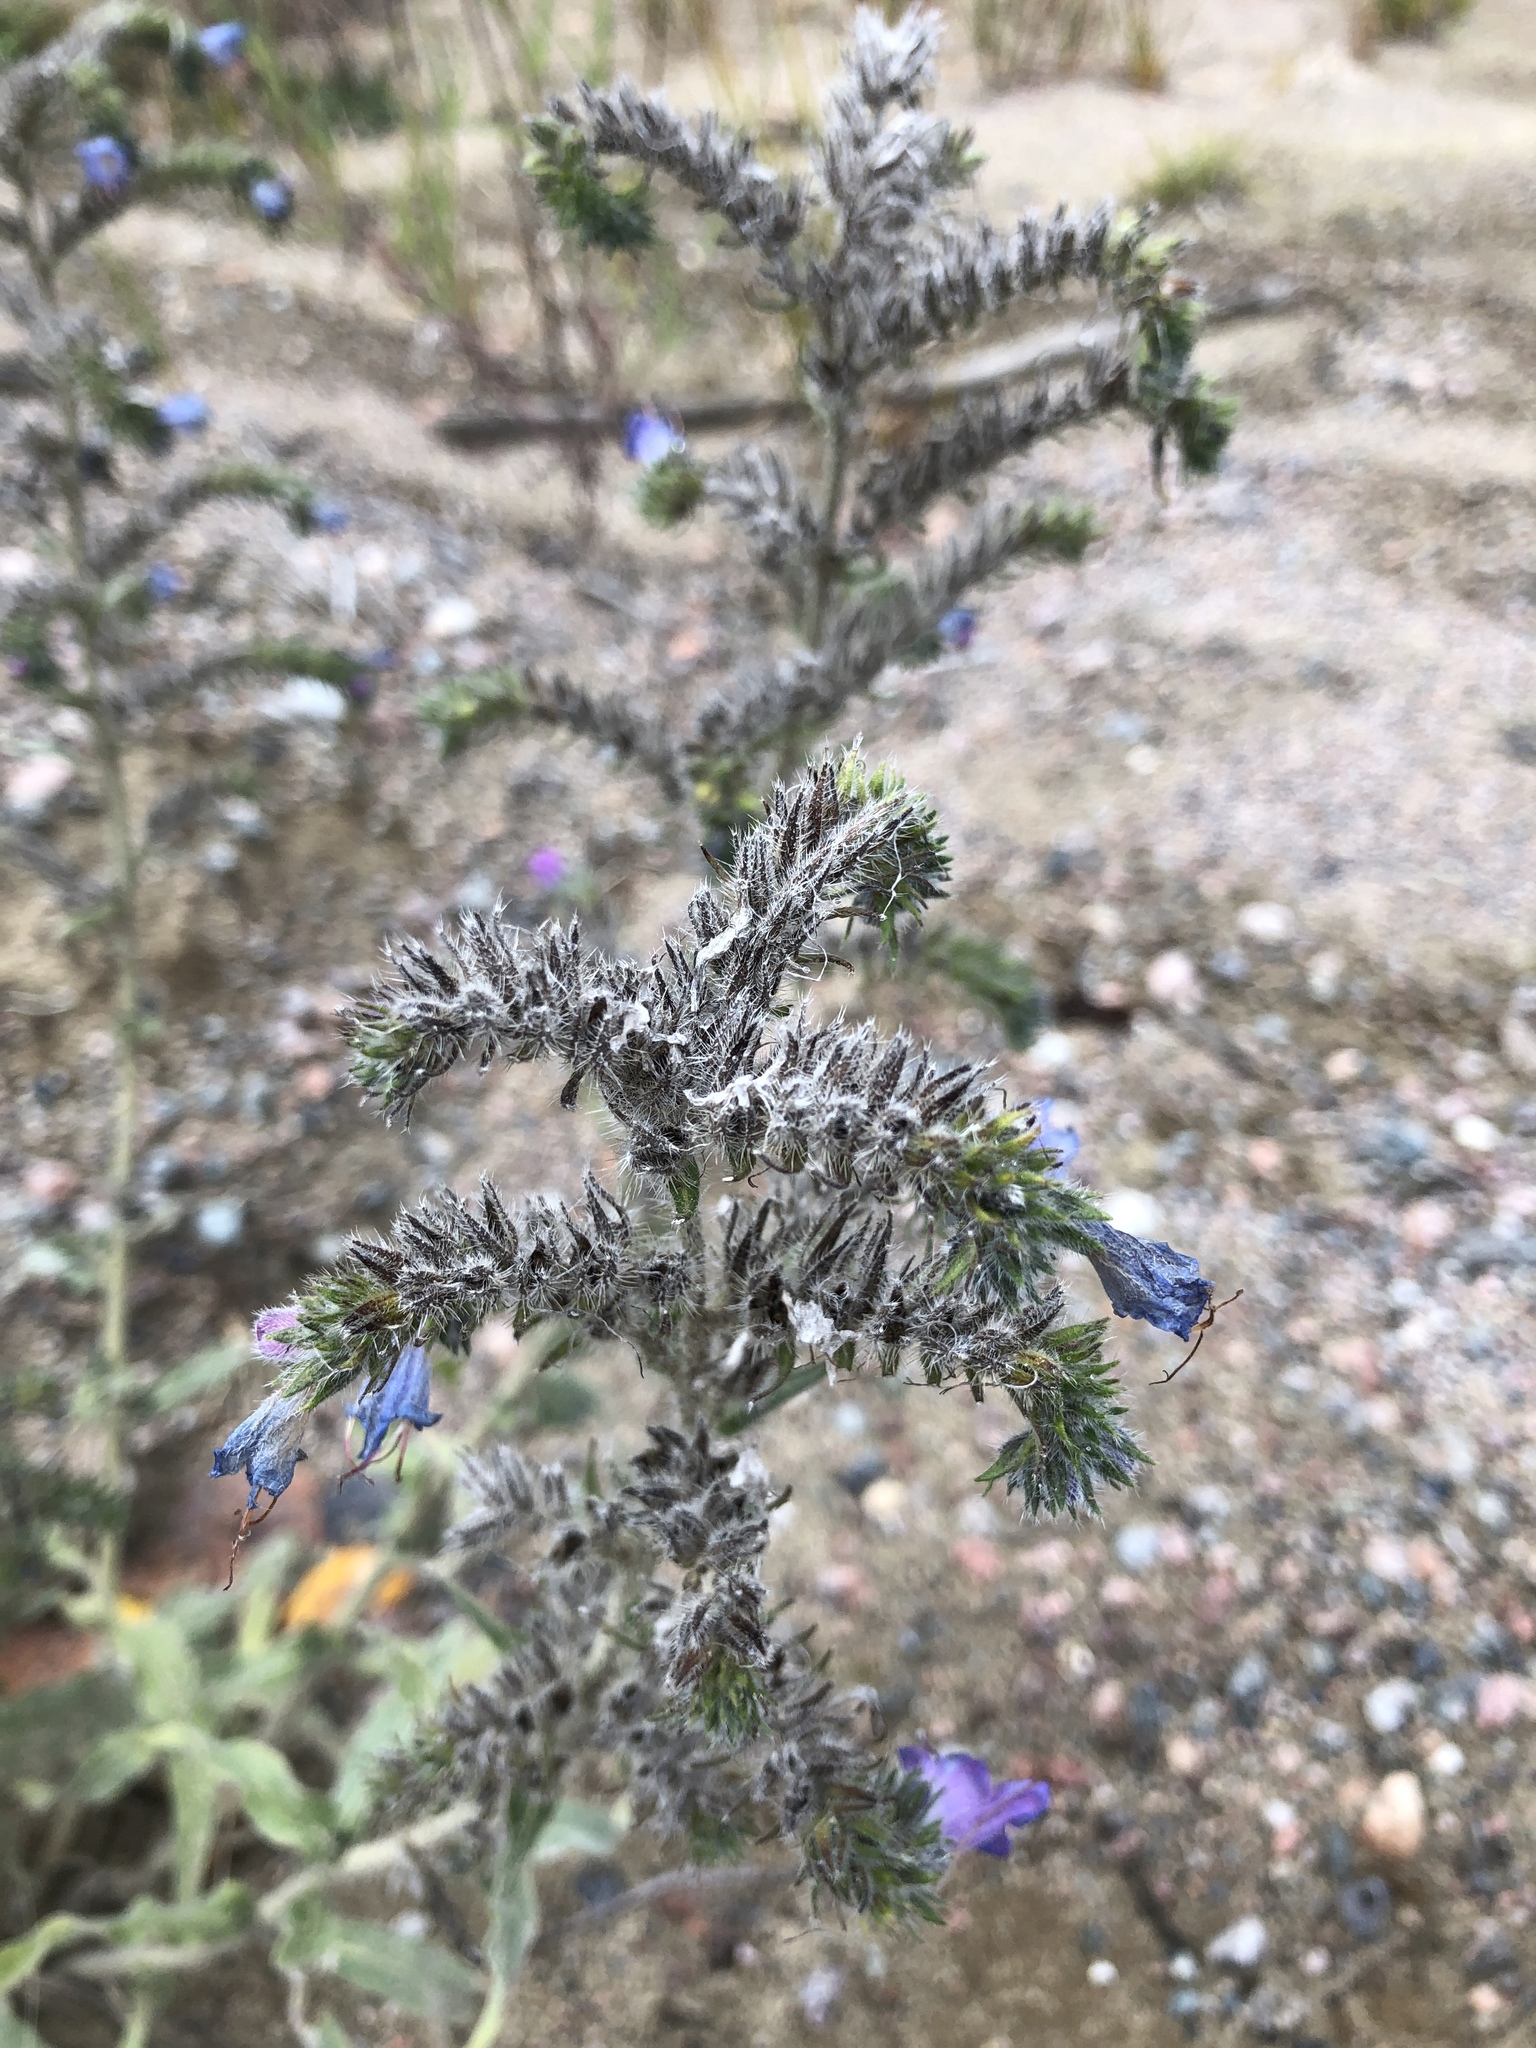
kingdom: Plantae
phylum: Tracheophyta
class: Magnoliopsida
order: Boraginales
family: Boraginaceae
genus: Echium
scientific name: Echium vulgare
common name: Common viper's bugloss
